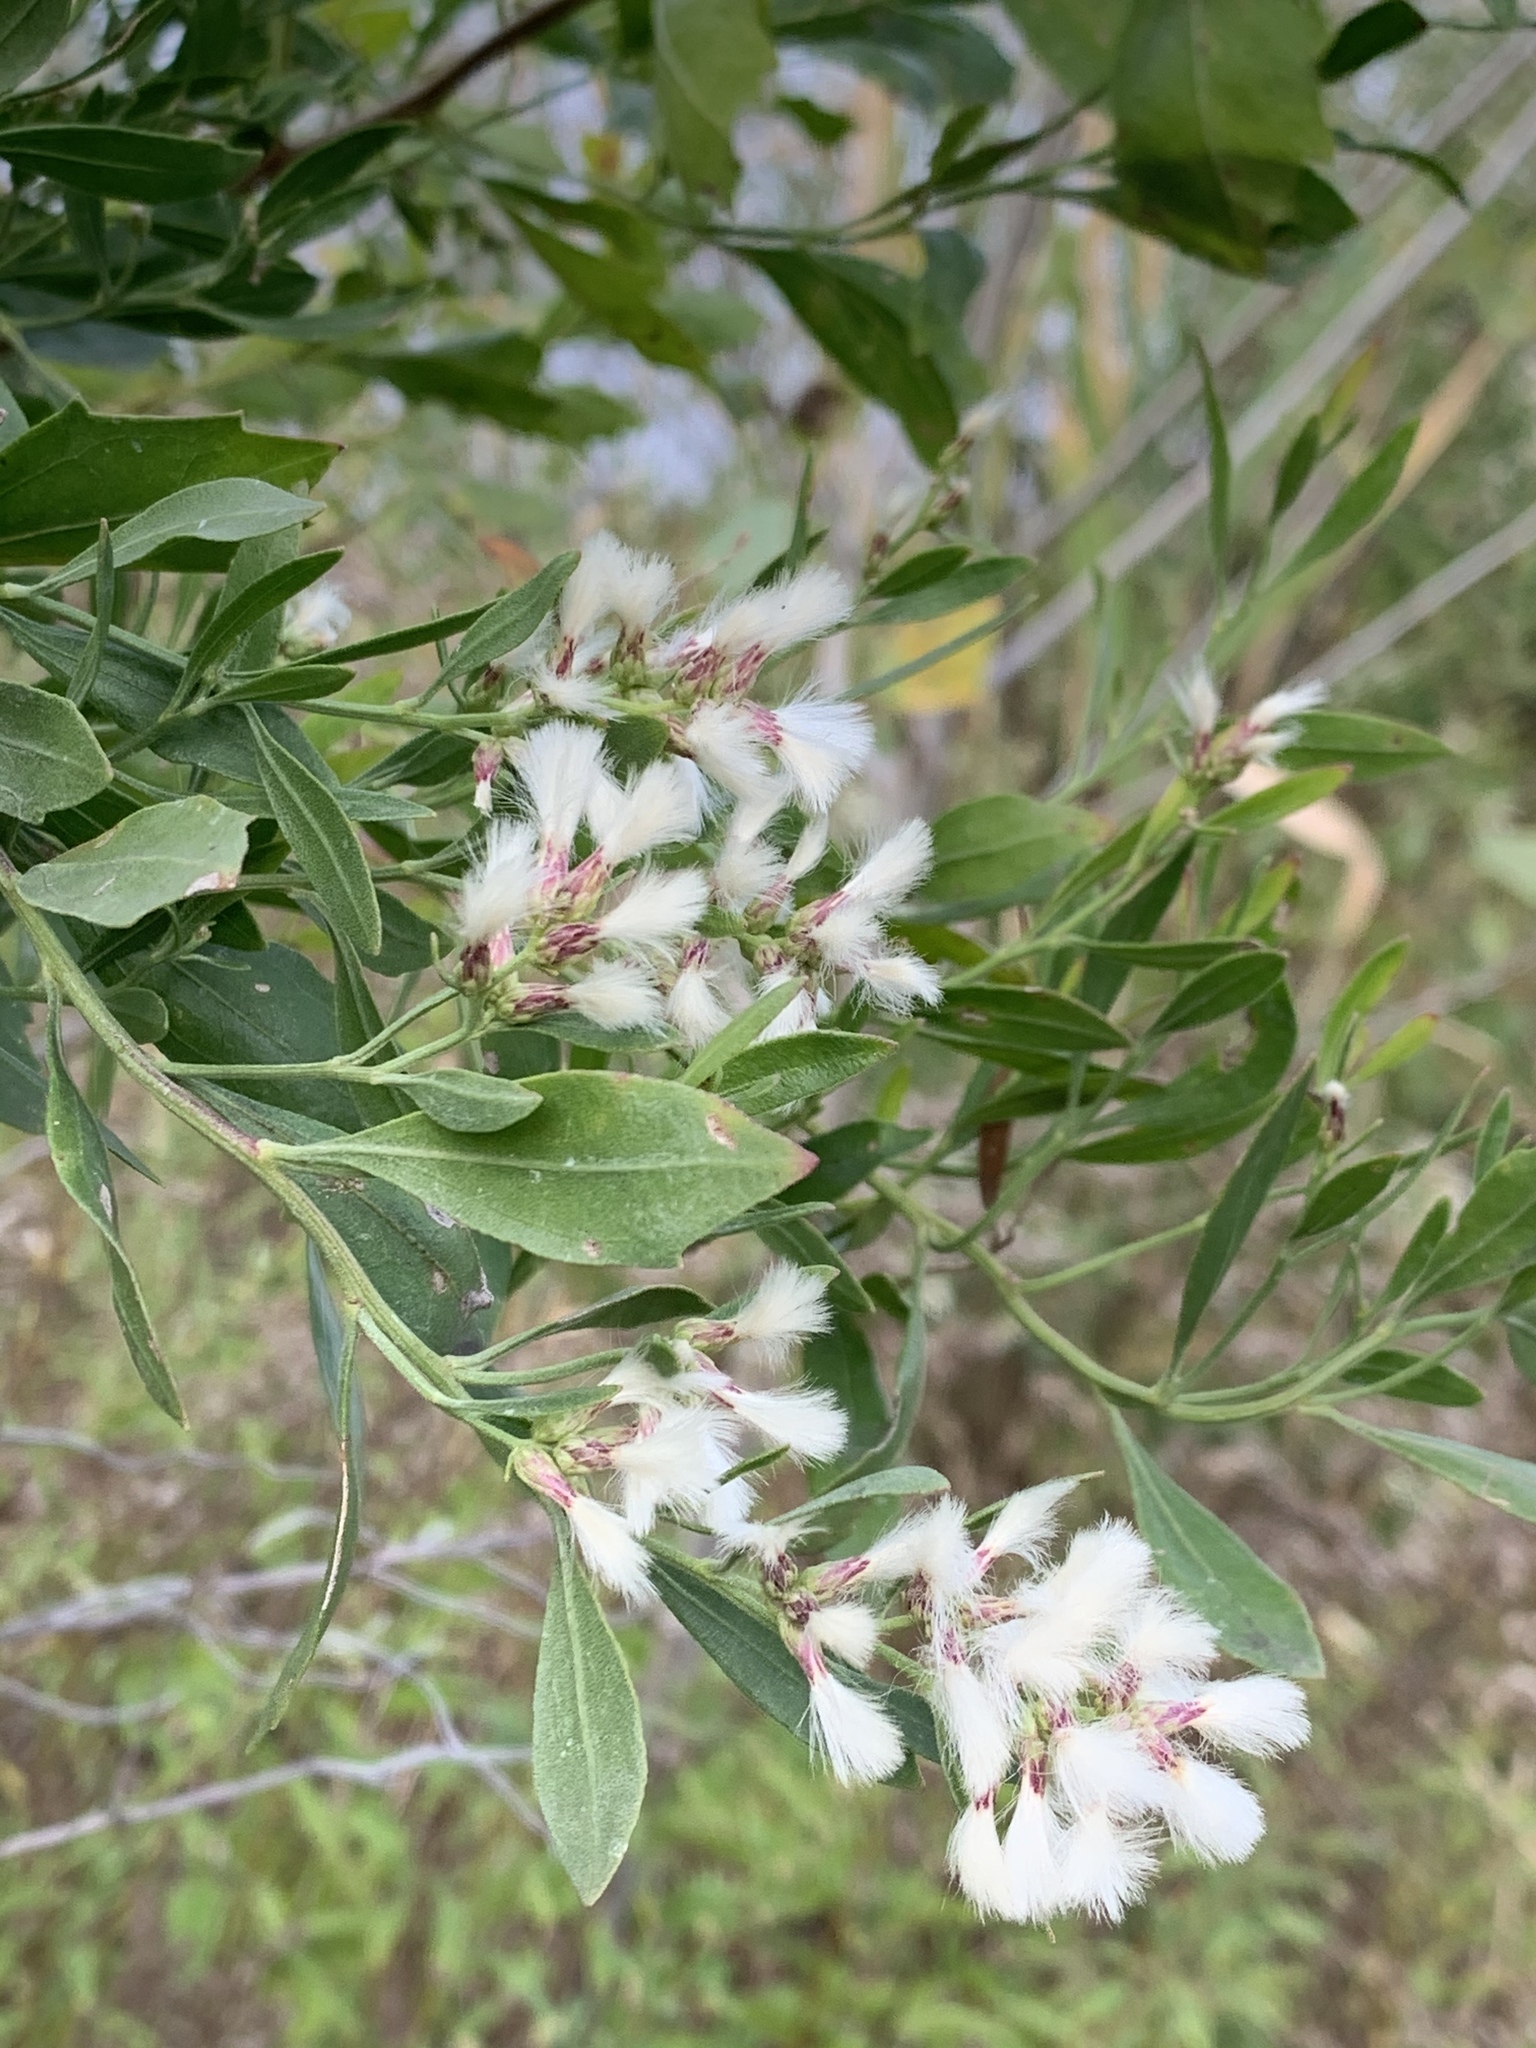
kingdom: Plantae
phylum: Tracheophyta
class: Magnoliopsida
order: Asterales
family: Asteraceae
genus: Baccharis
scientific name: Baccharis halimifolia
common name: Eastern baccharis
